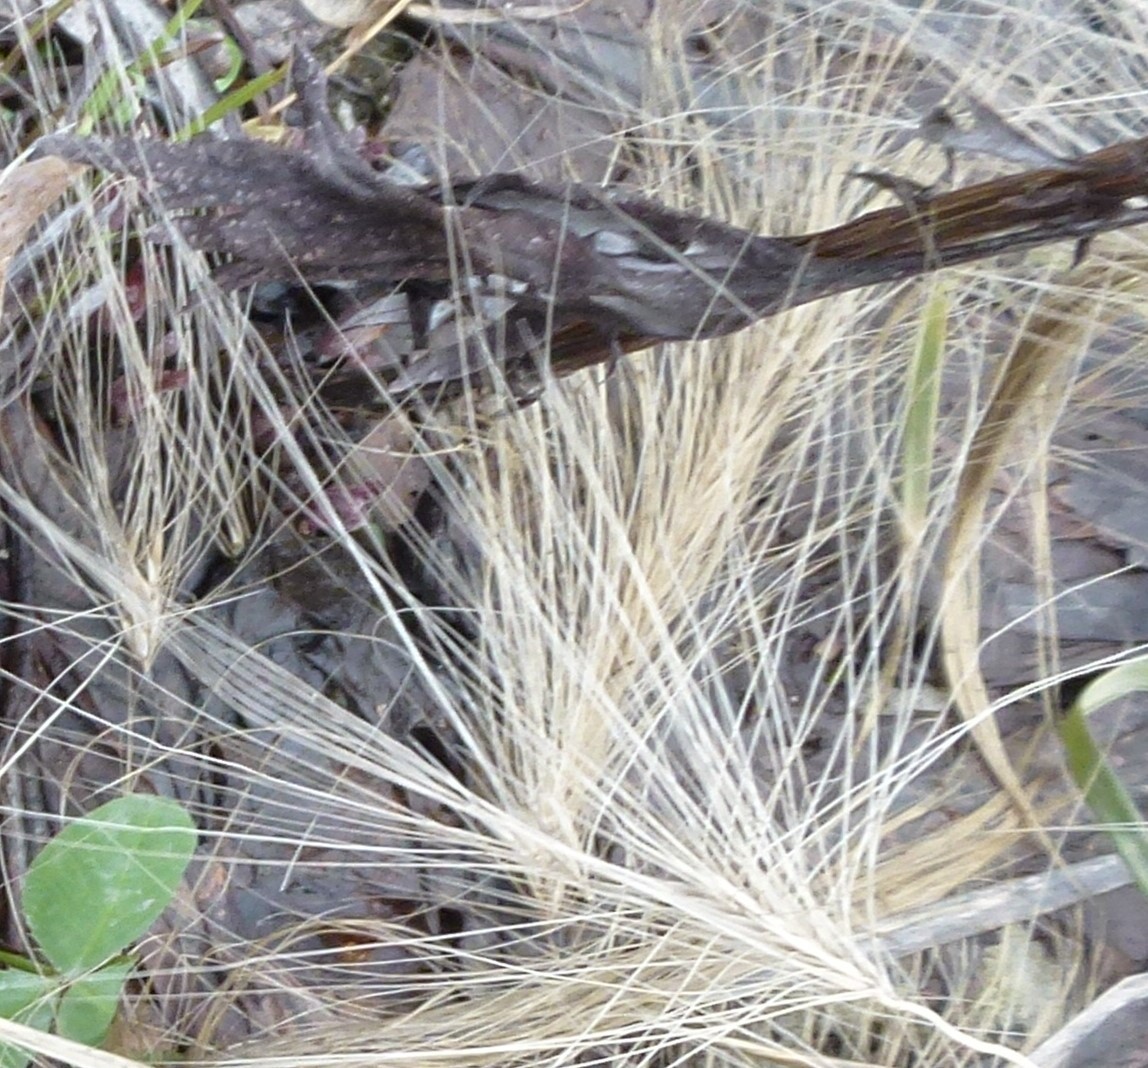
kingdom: Plantae
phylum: Tracheophyta
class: Liliopsida
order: Poales
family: Poaceae
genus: Hordeum
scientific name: Hordeum jubatum
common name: Foxtail barley
